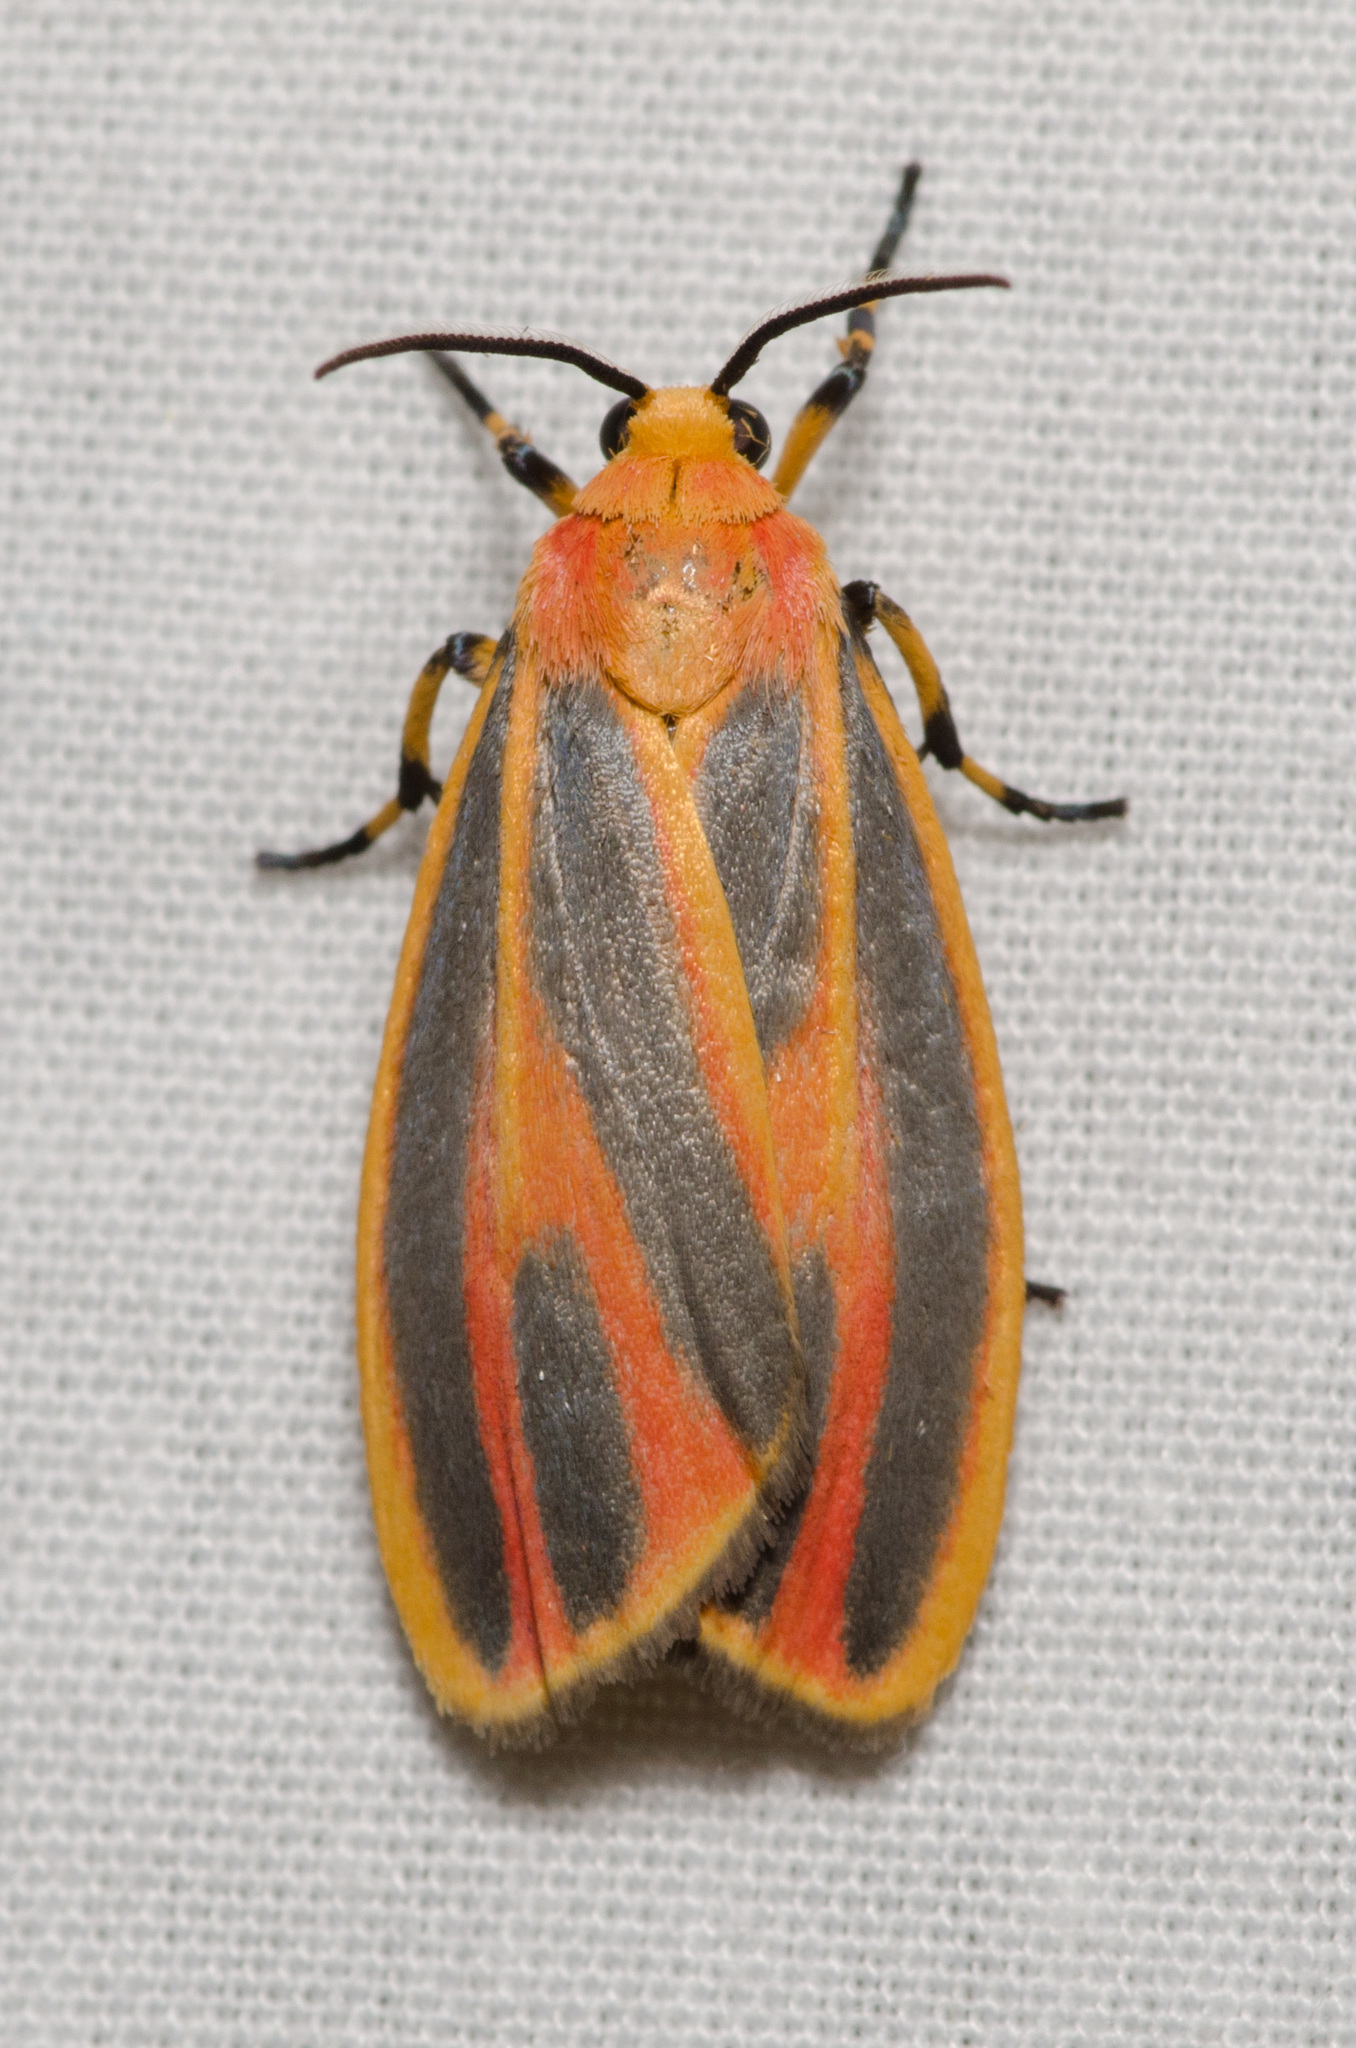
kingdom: Animalia
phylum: Arthropoda
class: Insecta
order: Lepidoptera
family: Erebidae
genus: Hypoprepia
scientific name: Hypoprepia fucosa
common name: Painted lichen moth
